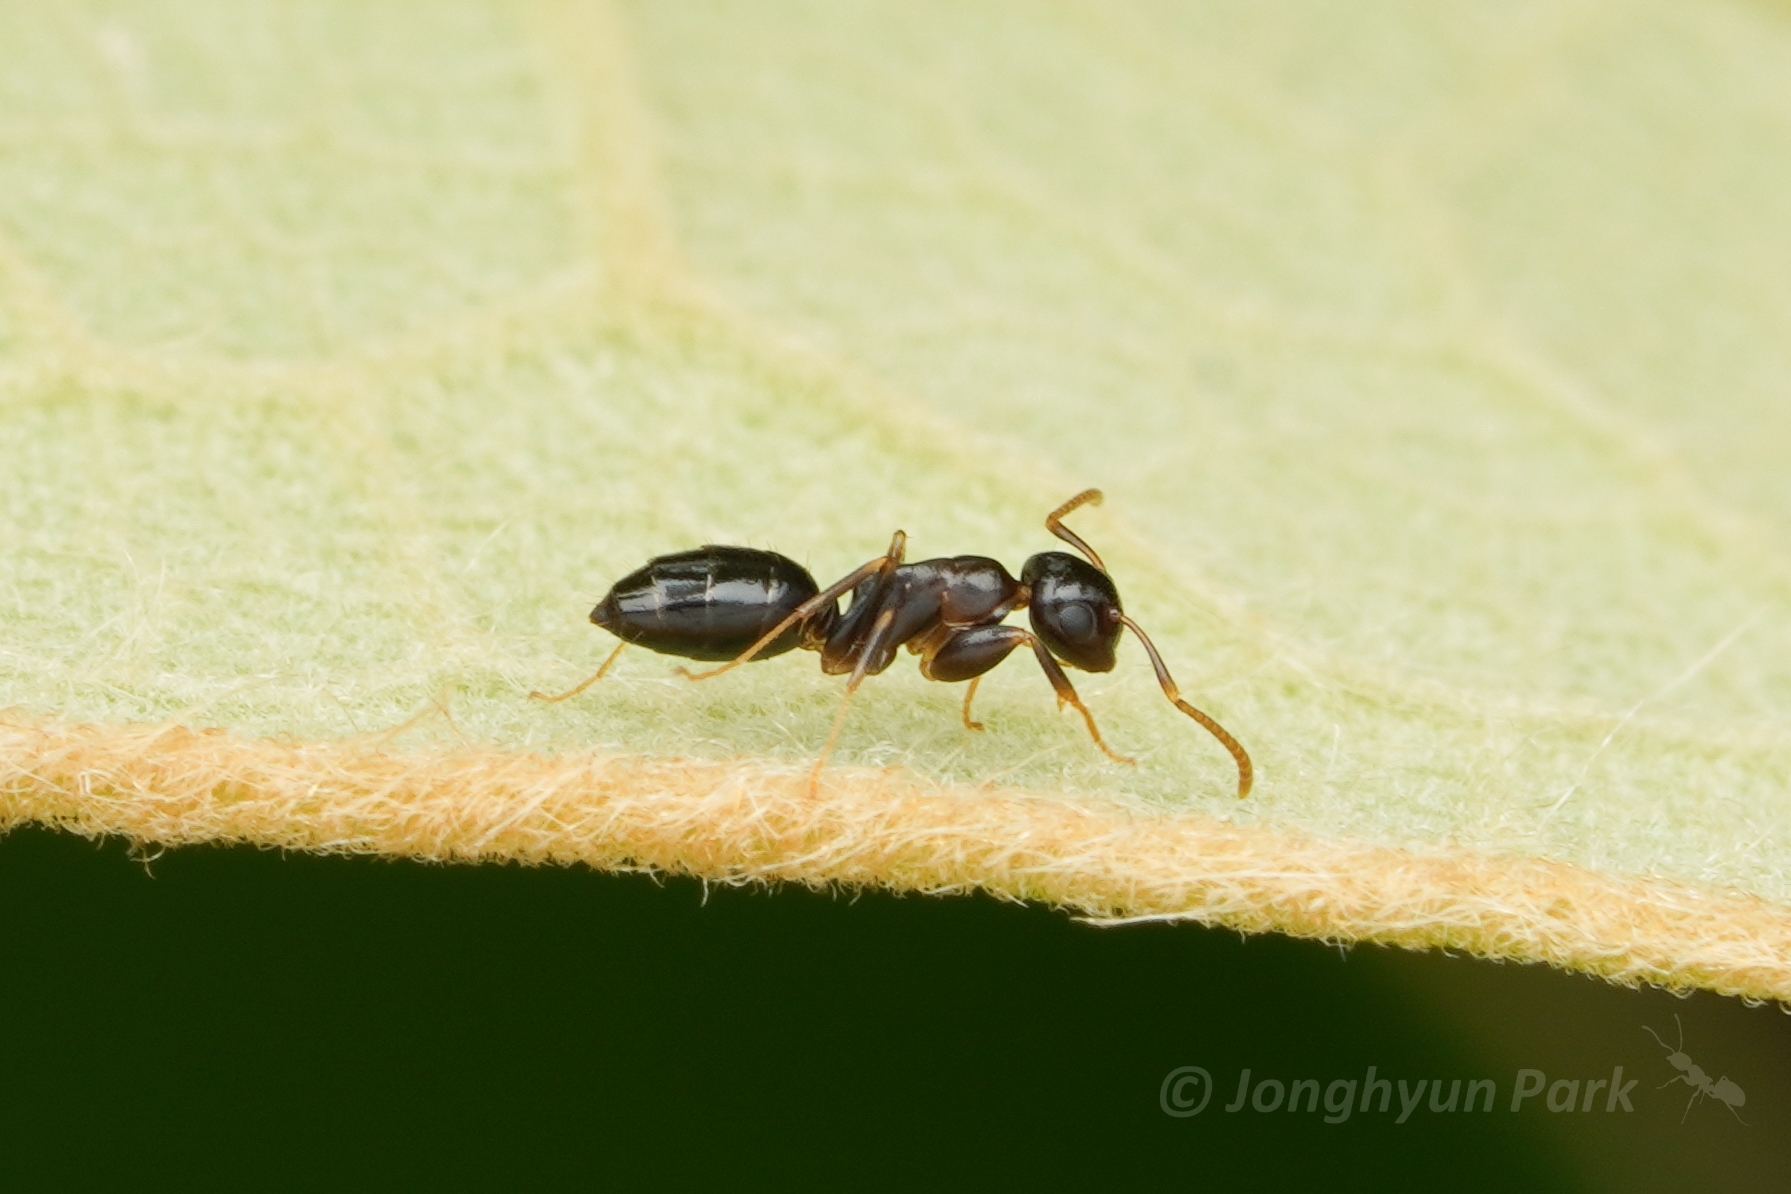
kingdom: Animalia
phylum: Arthropoda
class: Insecta
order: Hymenoptera
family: Formicidae
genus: Colobopsis
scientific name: Colobopsis
